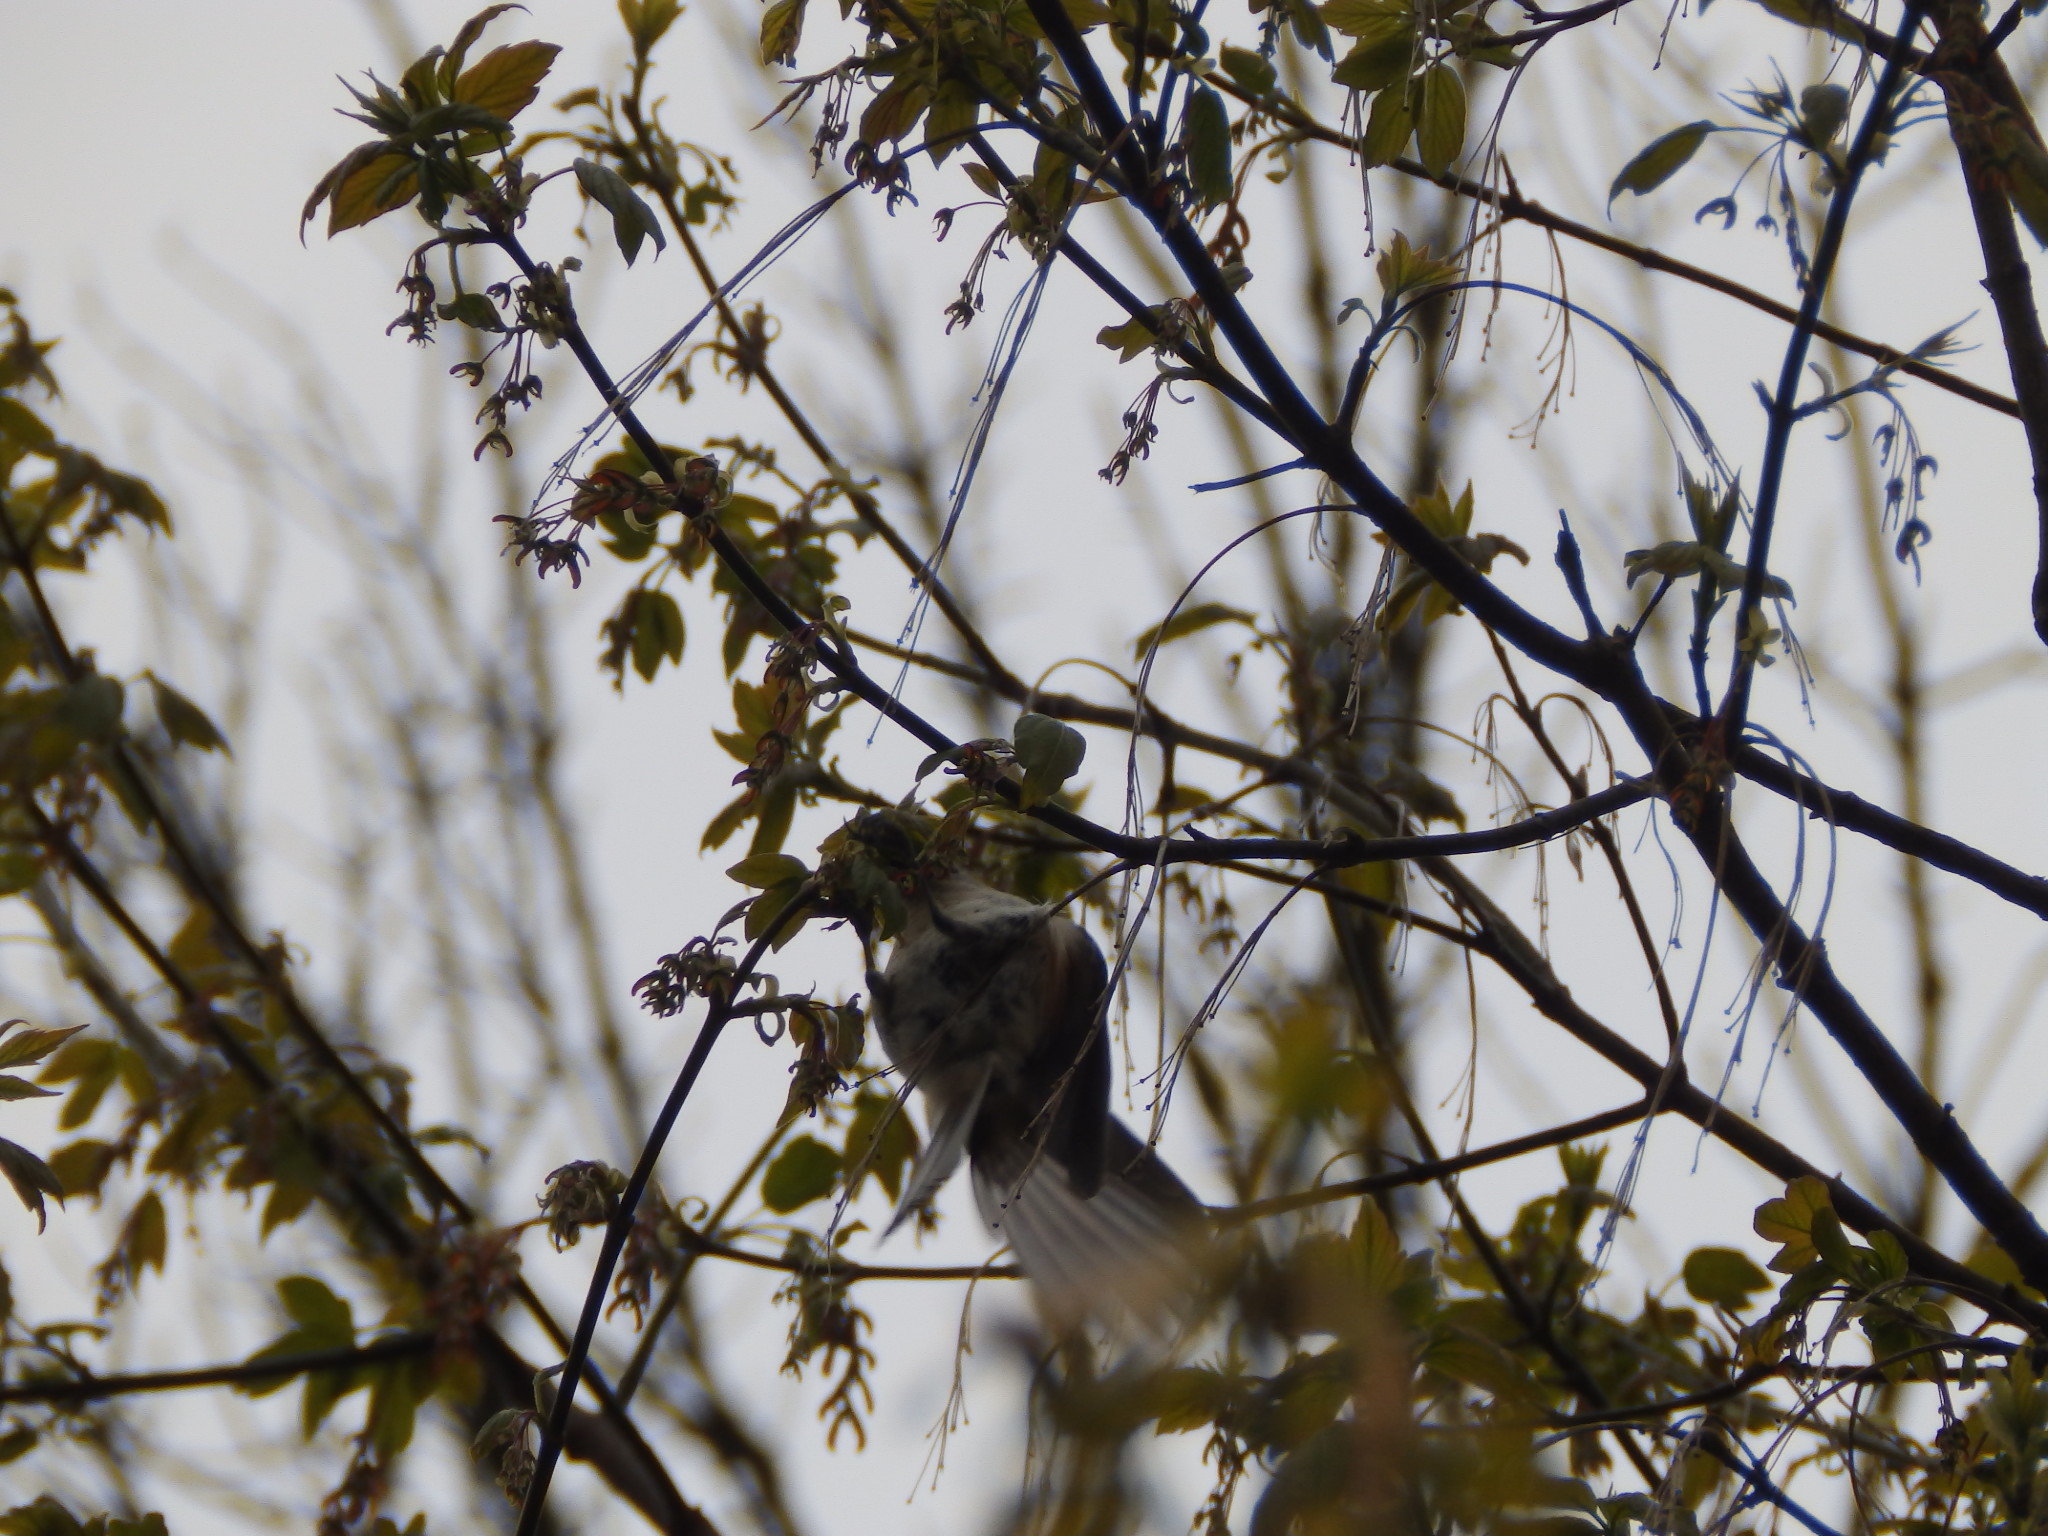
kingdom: Animalia
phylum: Chordata
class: Aves
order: Passeriformes
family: Paridae
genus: Baeolophus
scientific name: Baeolophus bicolor
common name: Tufted titmouse
